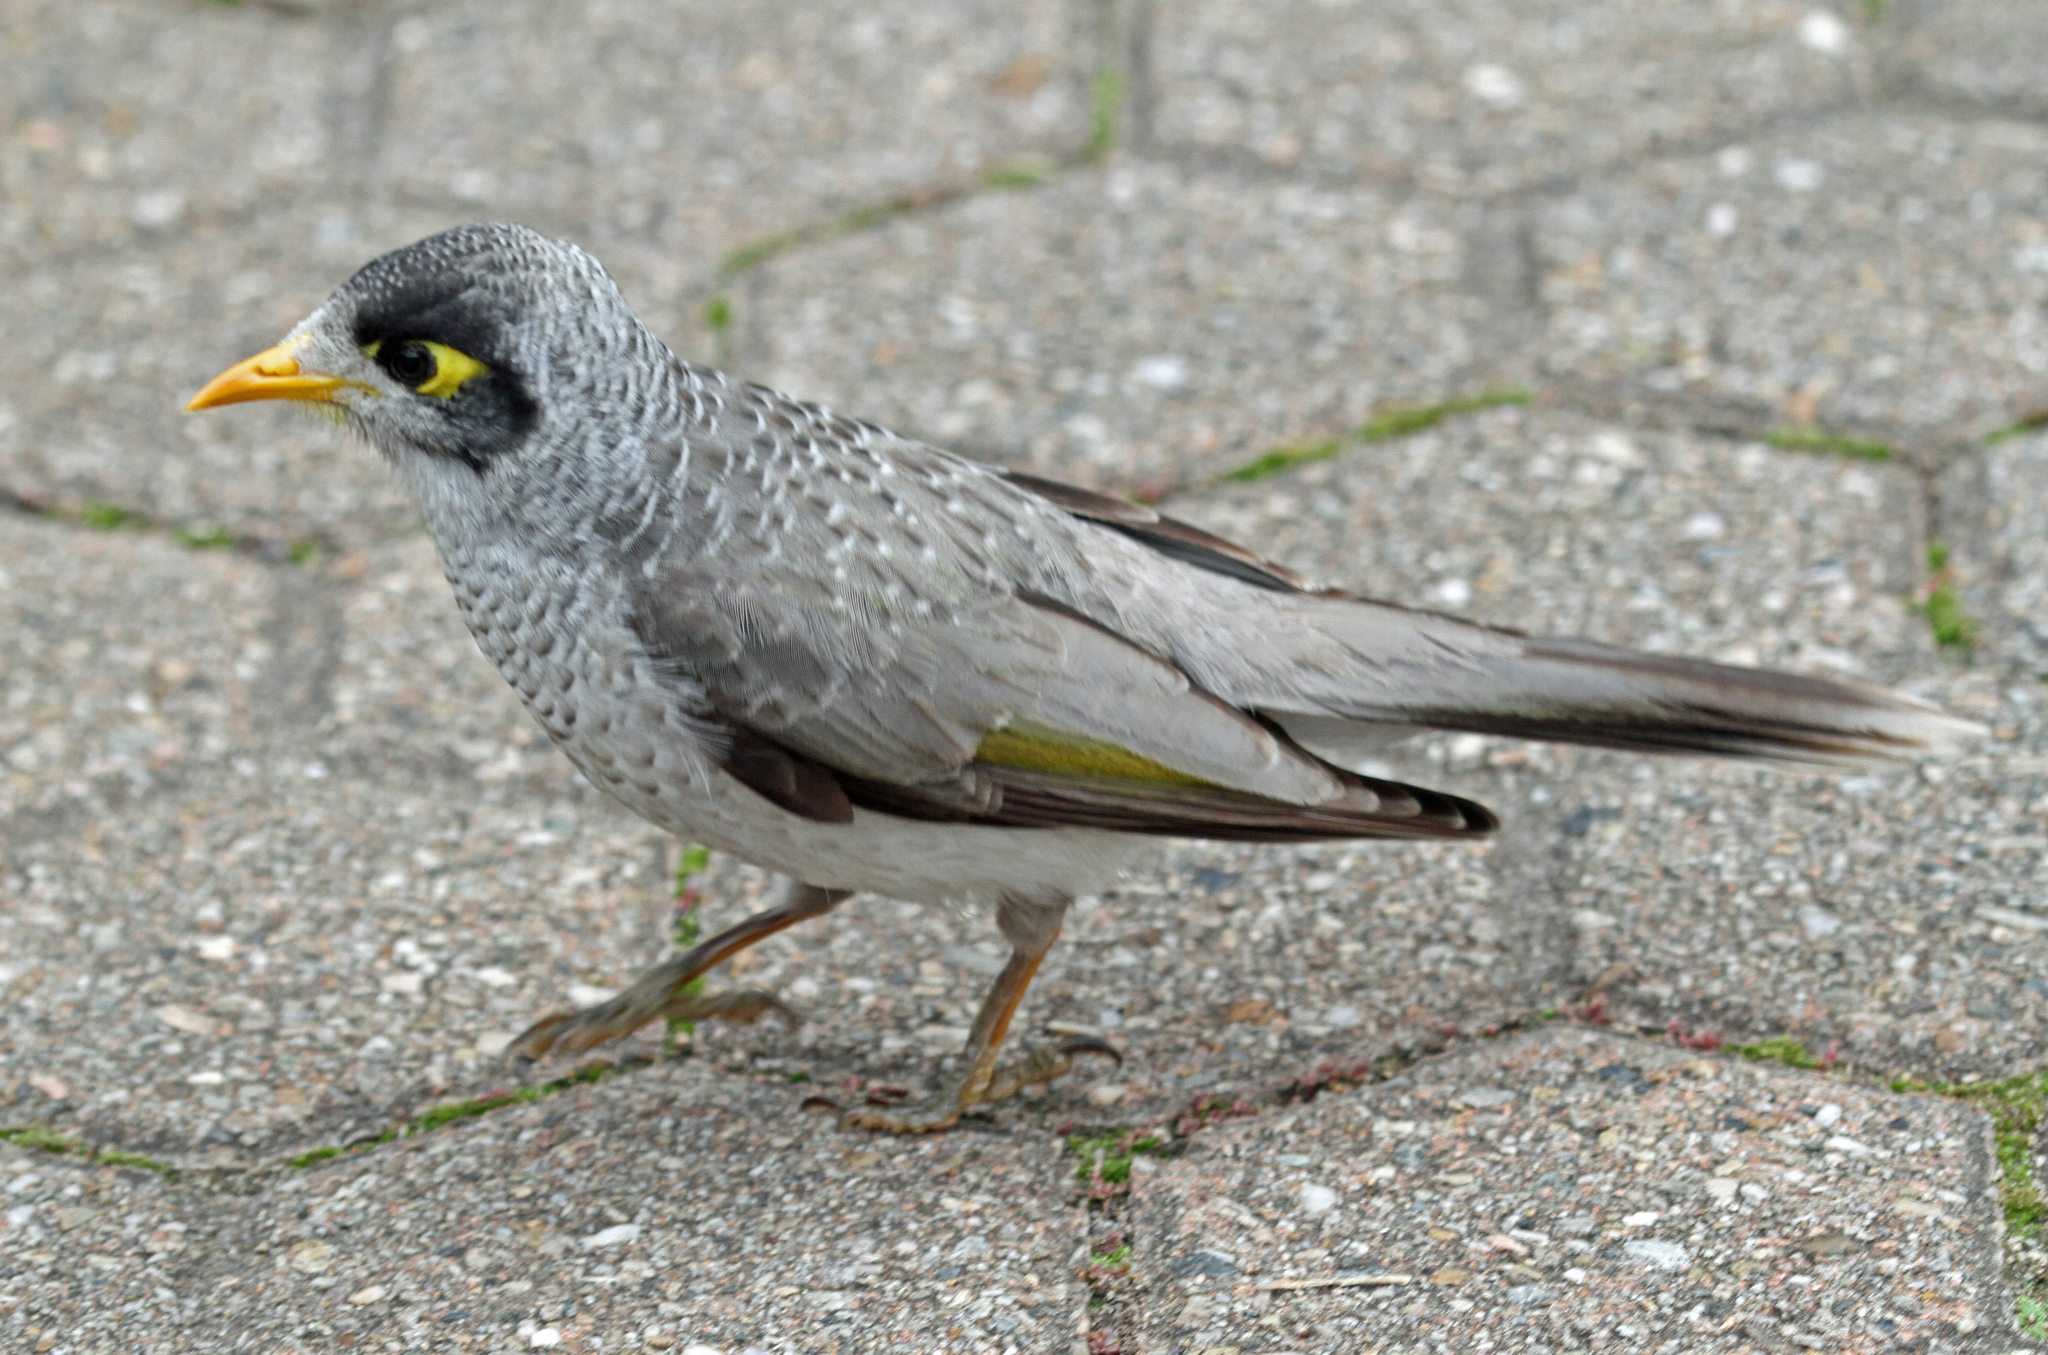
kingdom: Animalia
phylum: Chordata
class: Aves
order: Passeriformes
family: Meliphagidae
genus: Manorina
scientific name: Manorina melanocephala
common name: Noisy miner
